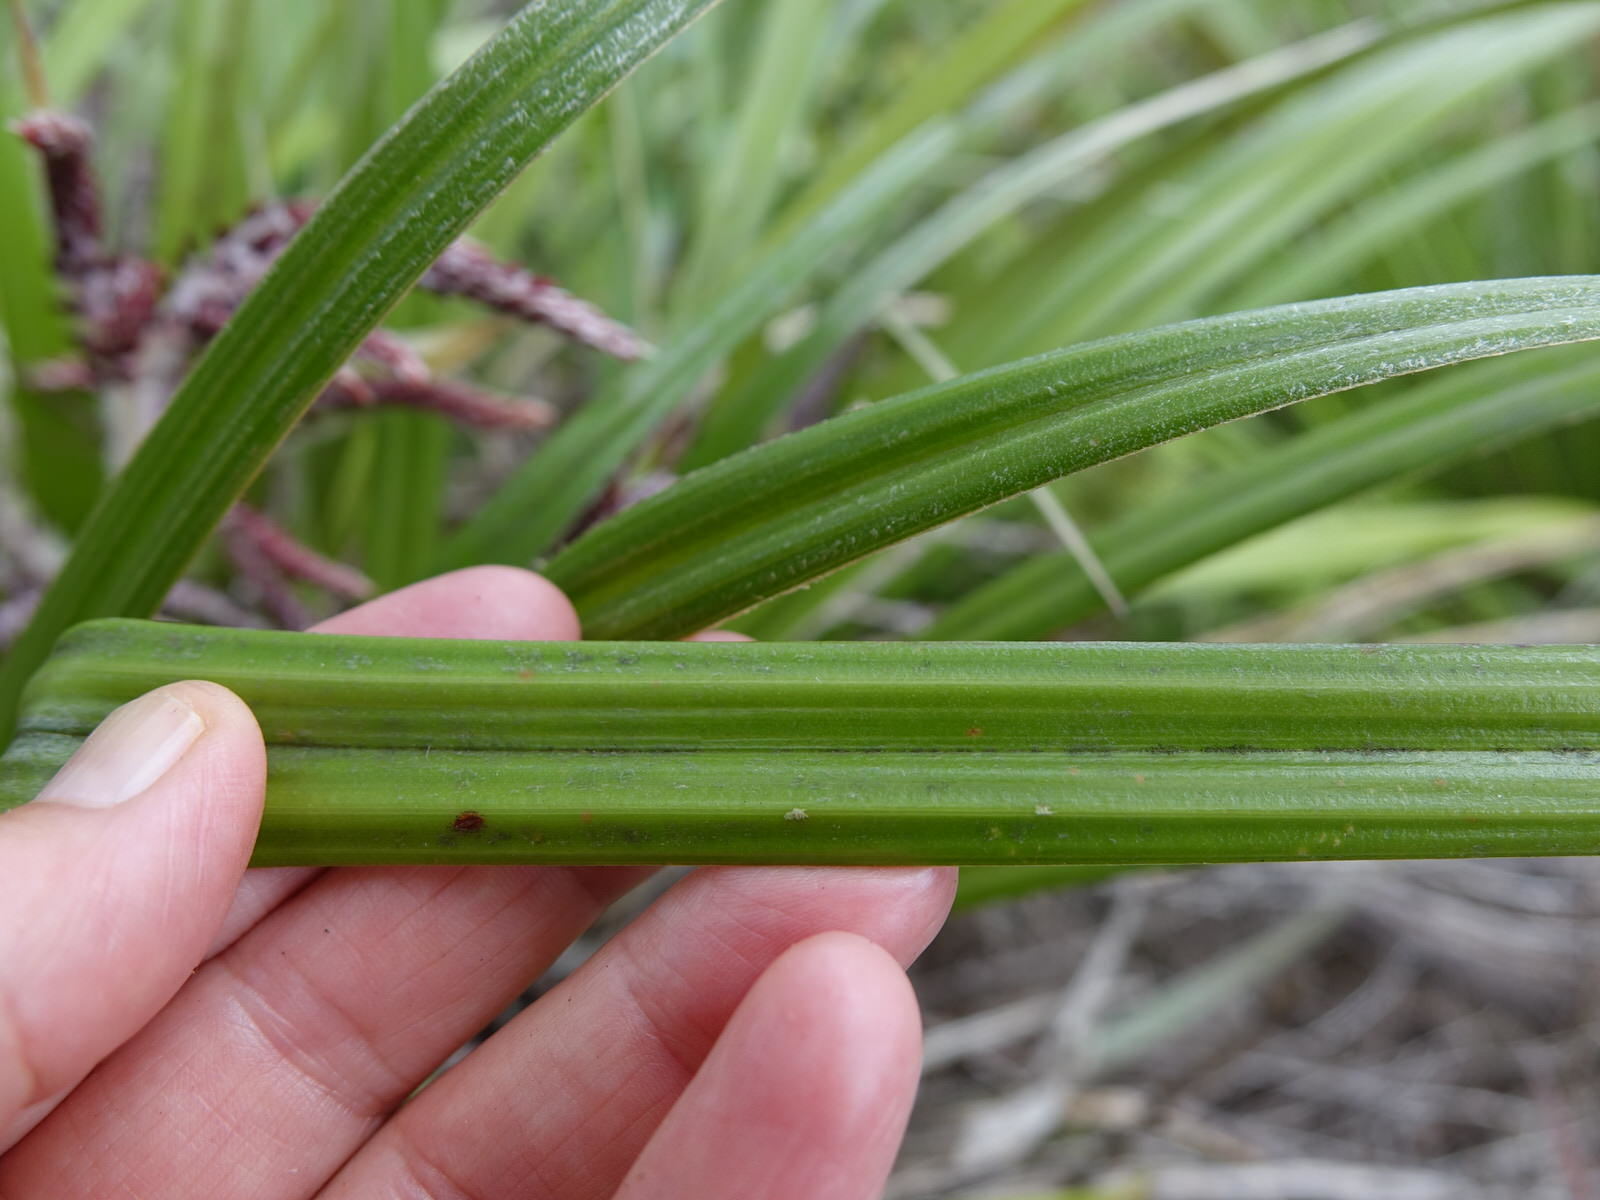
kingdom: Plantae
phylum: Tracheophyta
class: Liliopsida
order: Asparagales
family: Asteliaceae
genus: Astelia
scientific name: Astelia solandri
